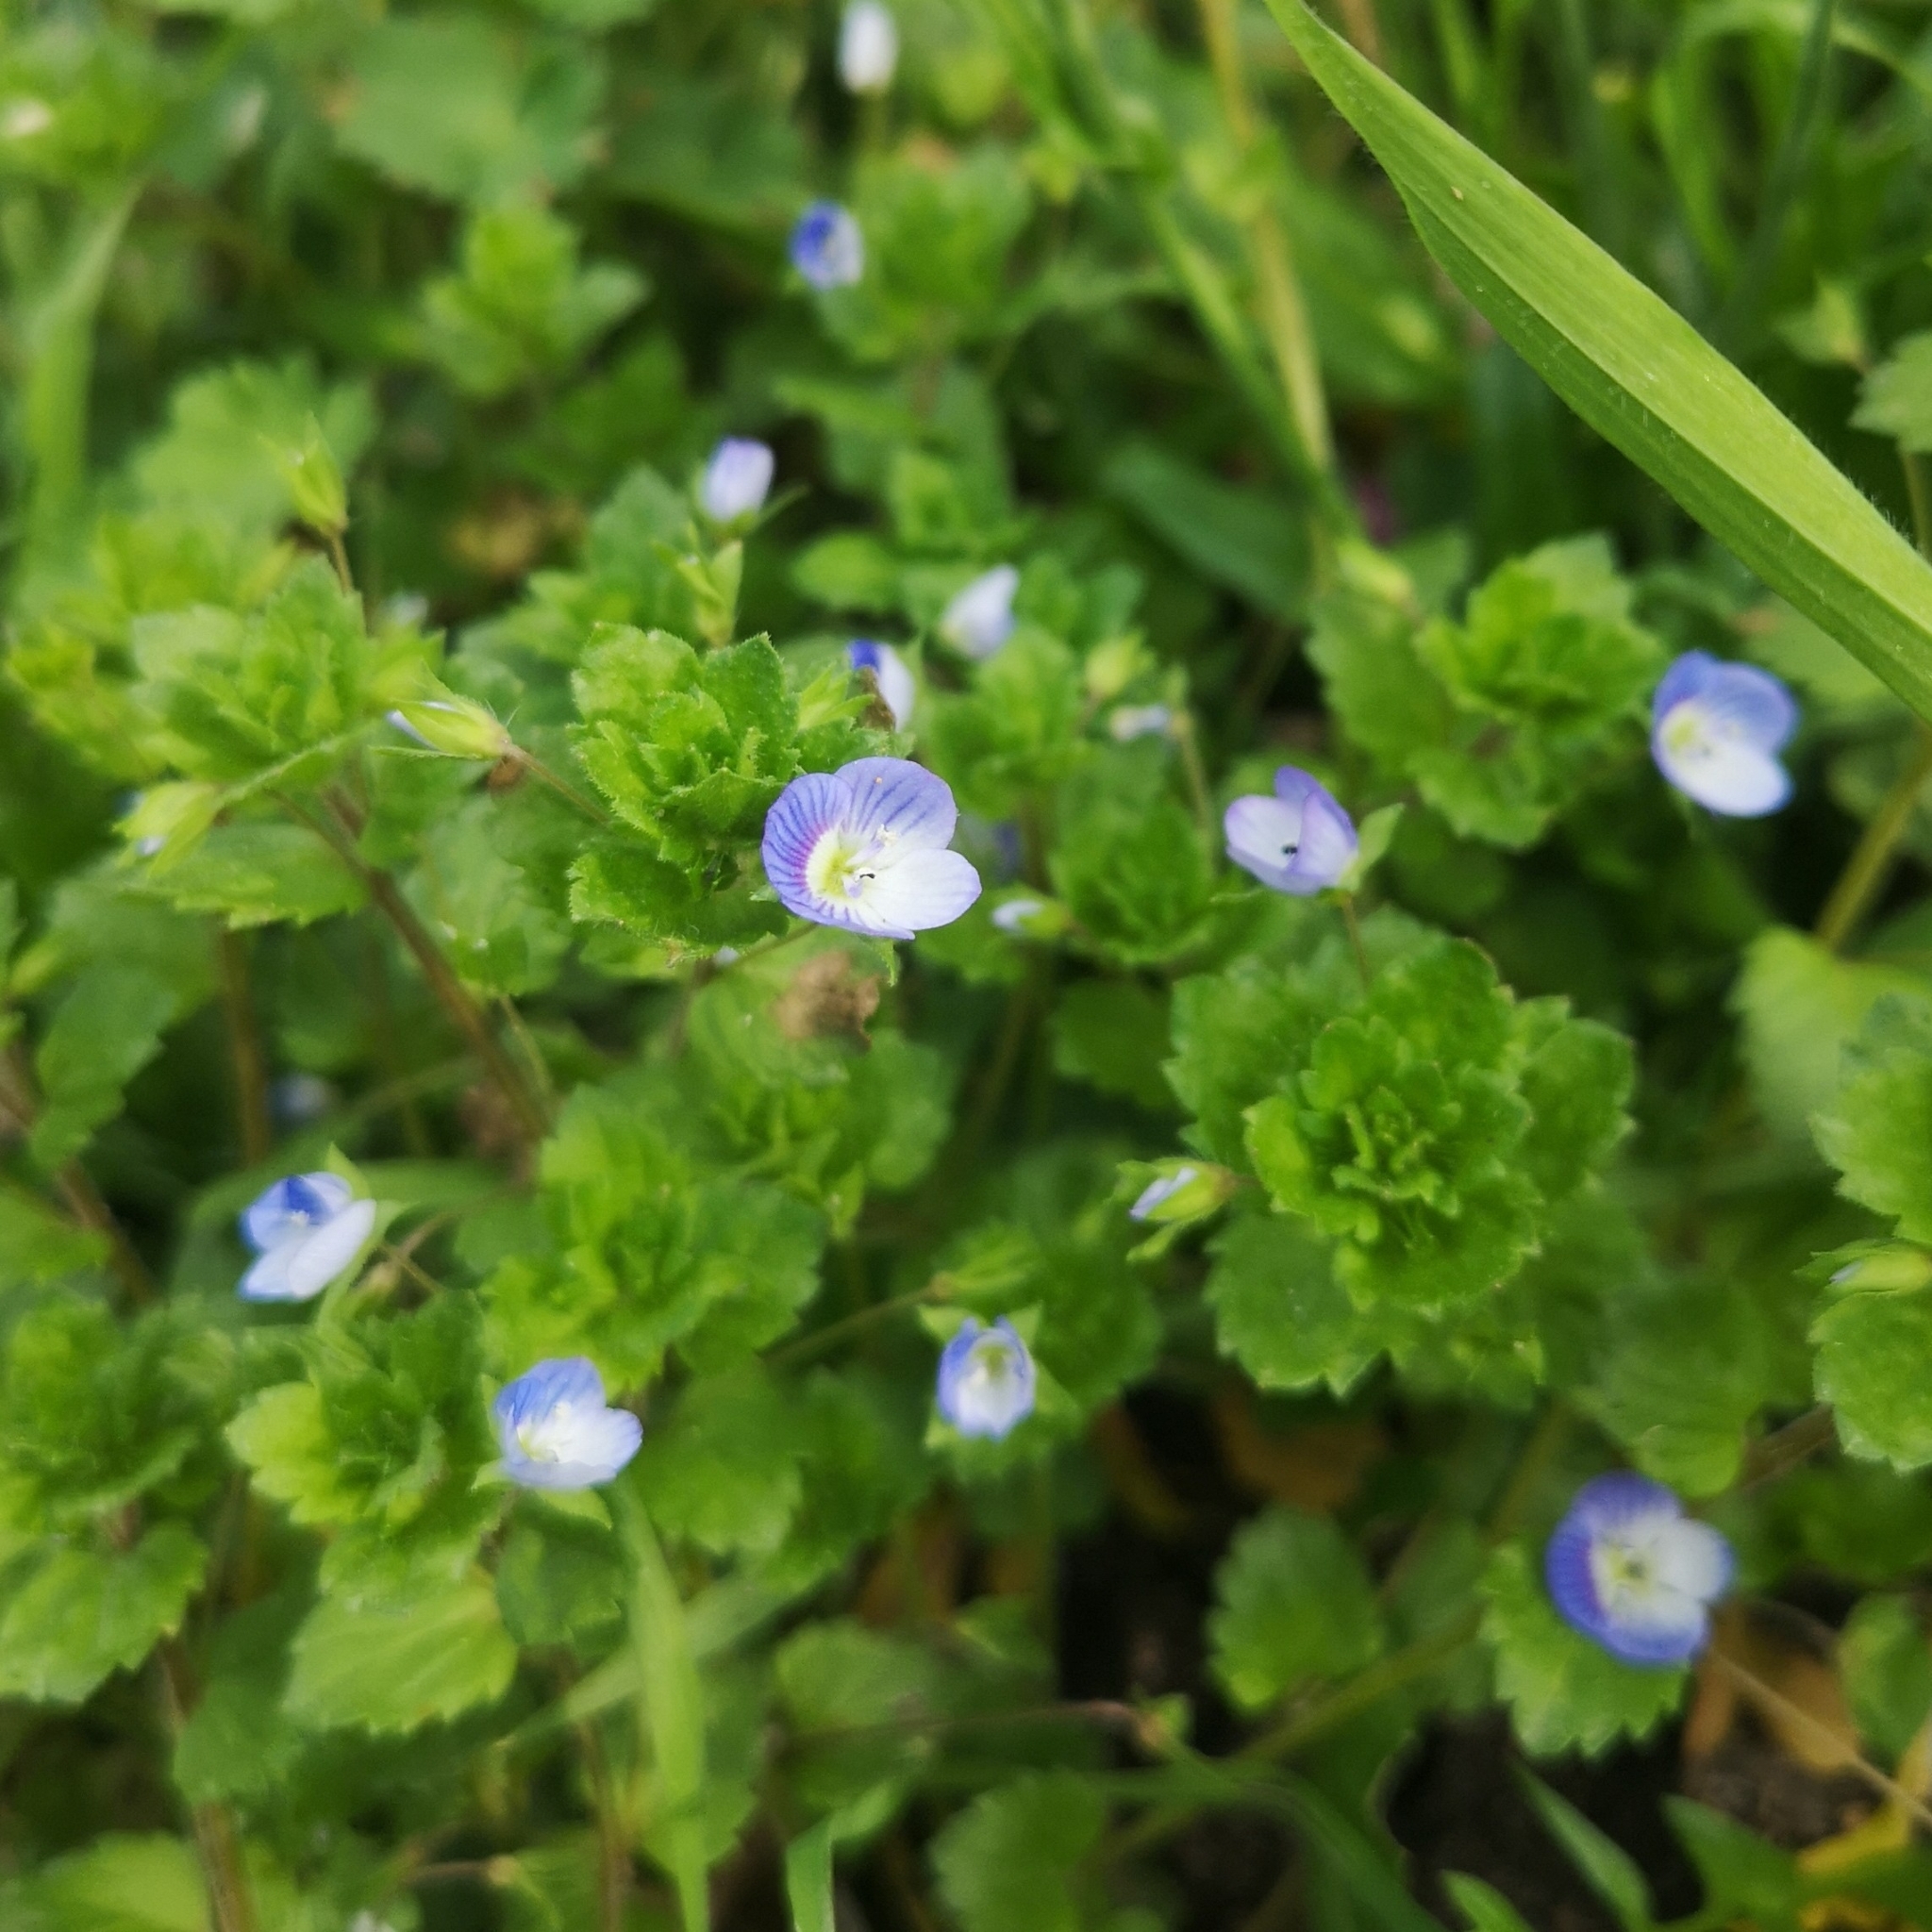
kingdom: Plantae
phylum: Tracheophyta
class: Magnoliopsida
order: Lamiales
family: Plantaginaceae
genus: Veronica
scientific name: Veronica persica
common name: Common field-speedwell
